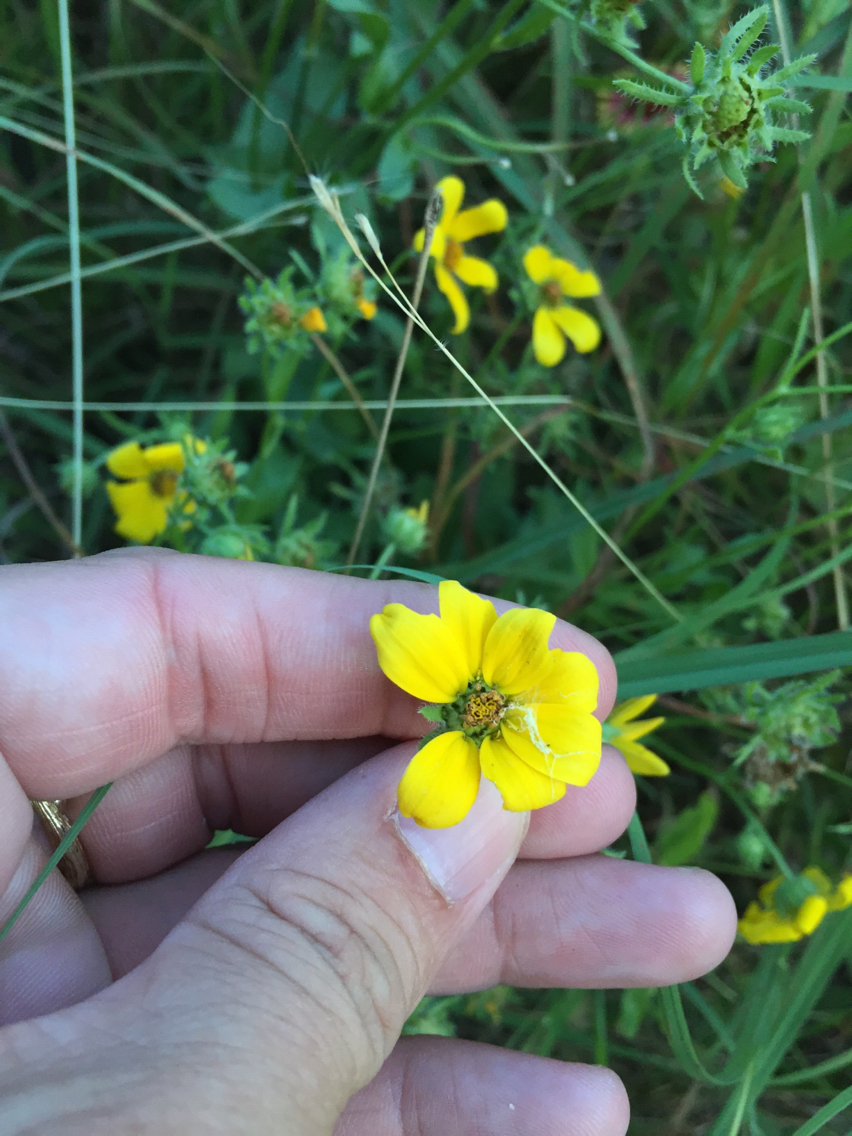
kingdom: Plantae
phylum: Tracheophyta
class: Magnoliopsida
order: Asterales
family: Asteraceae
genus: Engelmannia
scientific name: Engelmannia peristenia
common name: Engelmann's daisy
